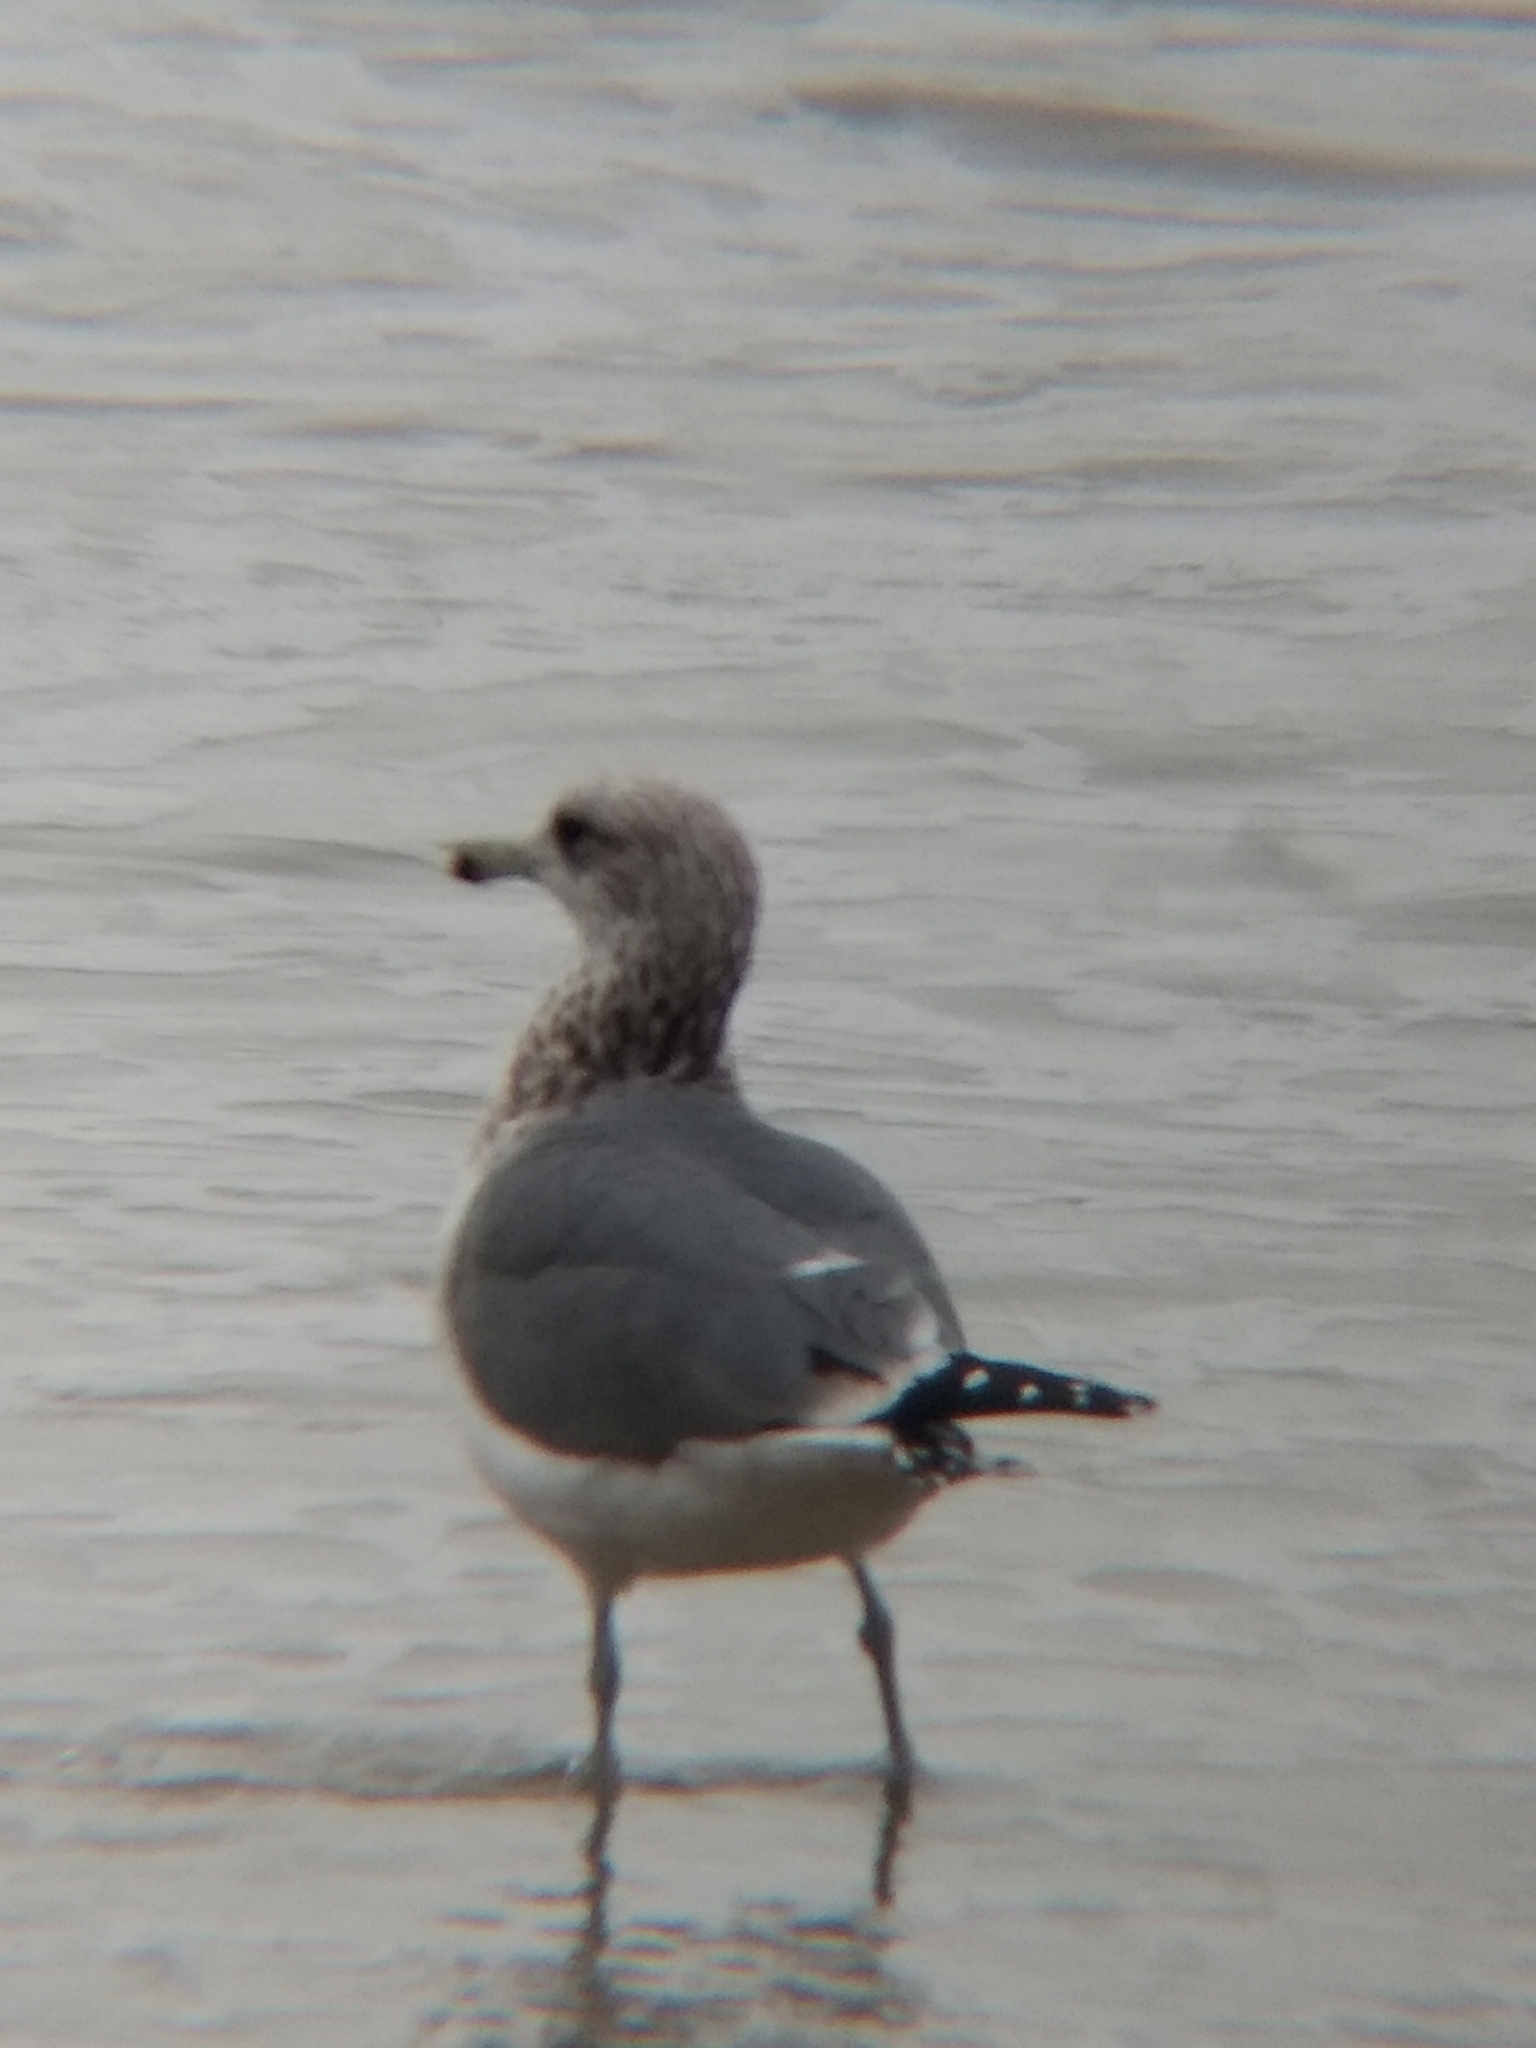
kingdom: Animalia
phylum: Chordata
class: Aves
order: Charadriiformes
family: Laridae
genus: Larus
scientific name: Larus californicus
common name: California gull
